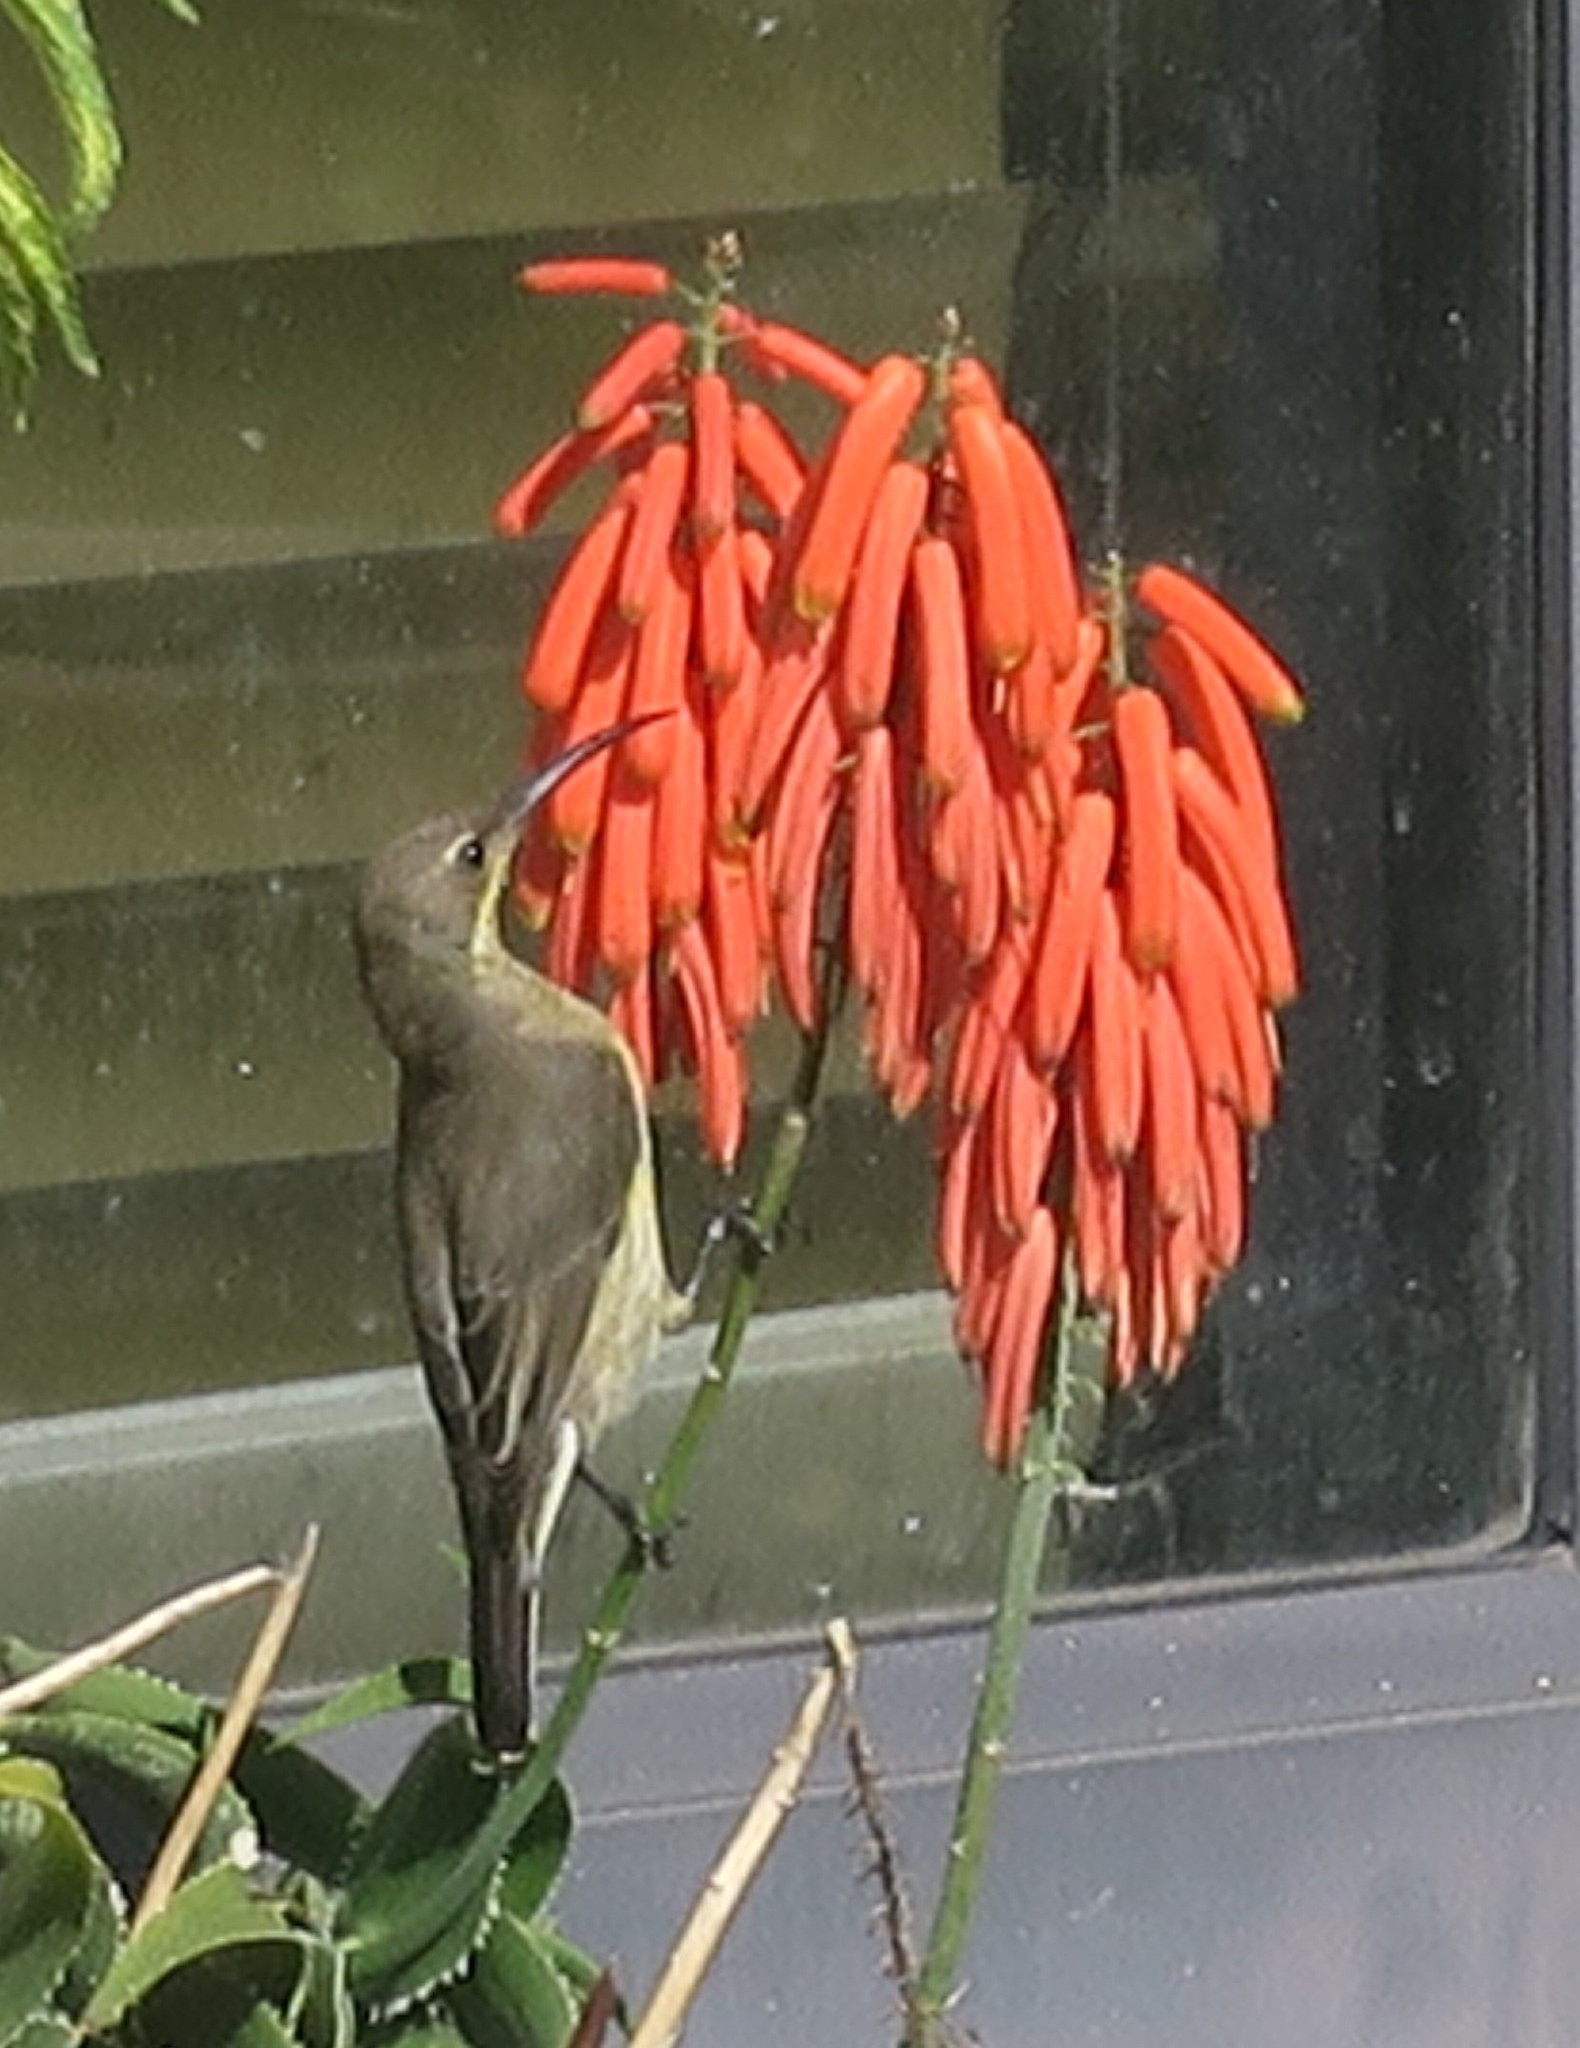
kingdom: Animalia
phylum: Chordata
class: Aves
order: Passeriformes
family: Nectariniidae
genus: Nectarinia
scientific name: Nectarinia famosa
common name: Malachite sunbird
